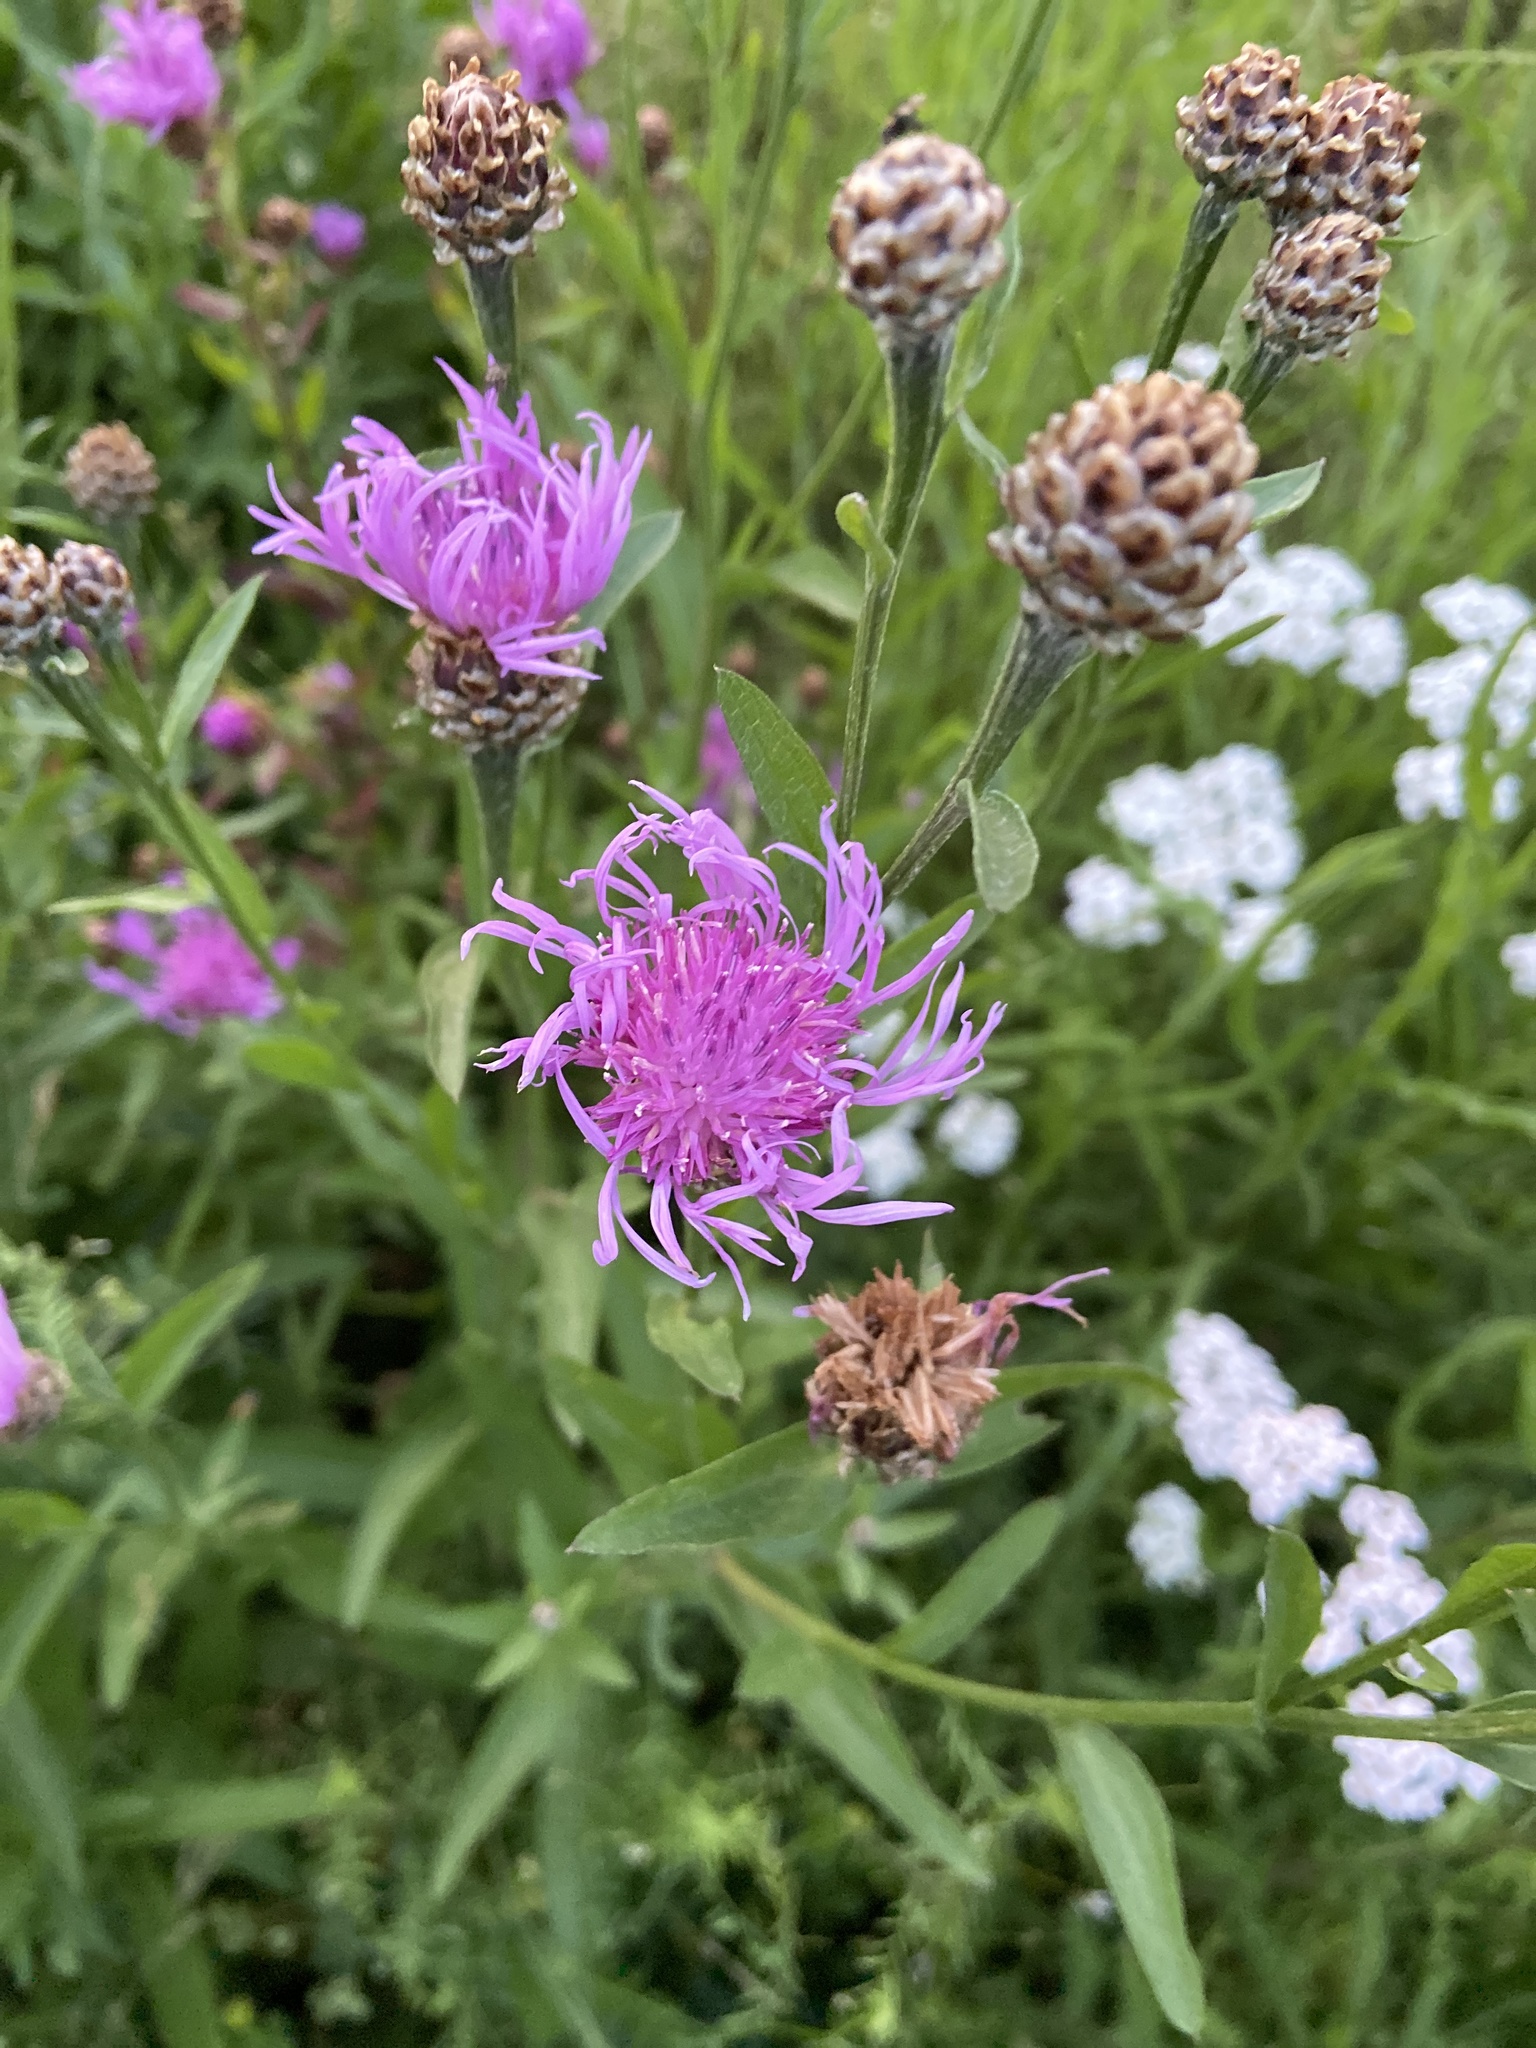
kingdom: Plantae
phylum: Tracheophyta
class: Magnoliopsida
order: Asterales
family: Asteraceae
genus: Centaurea
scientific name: Centaurea jacea
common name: Brown knapweed
